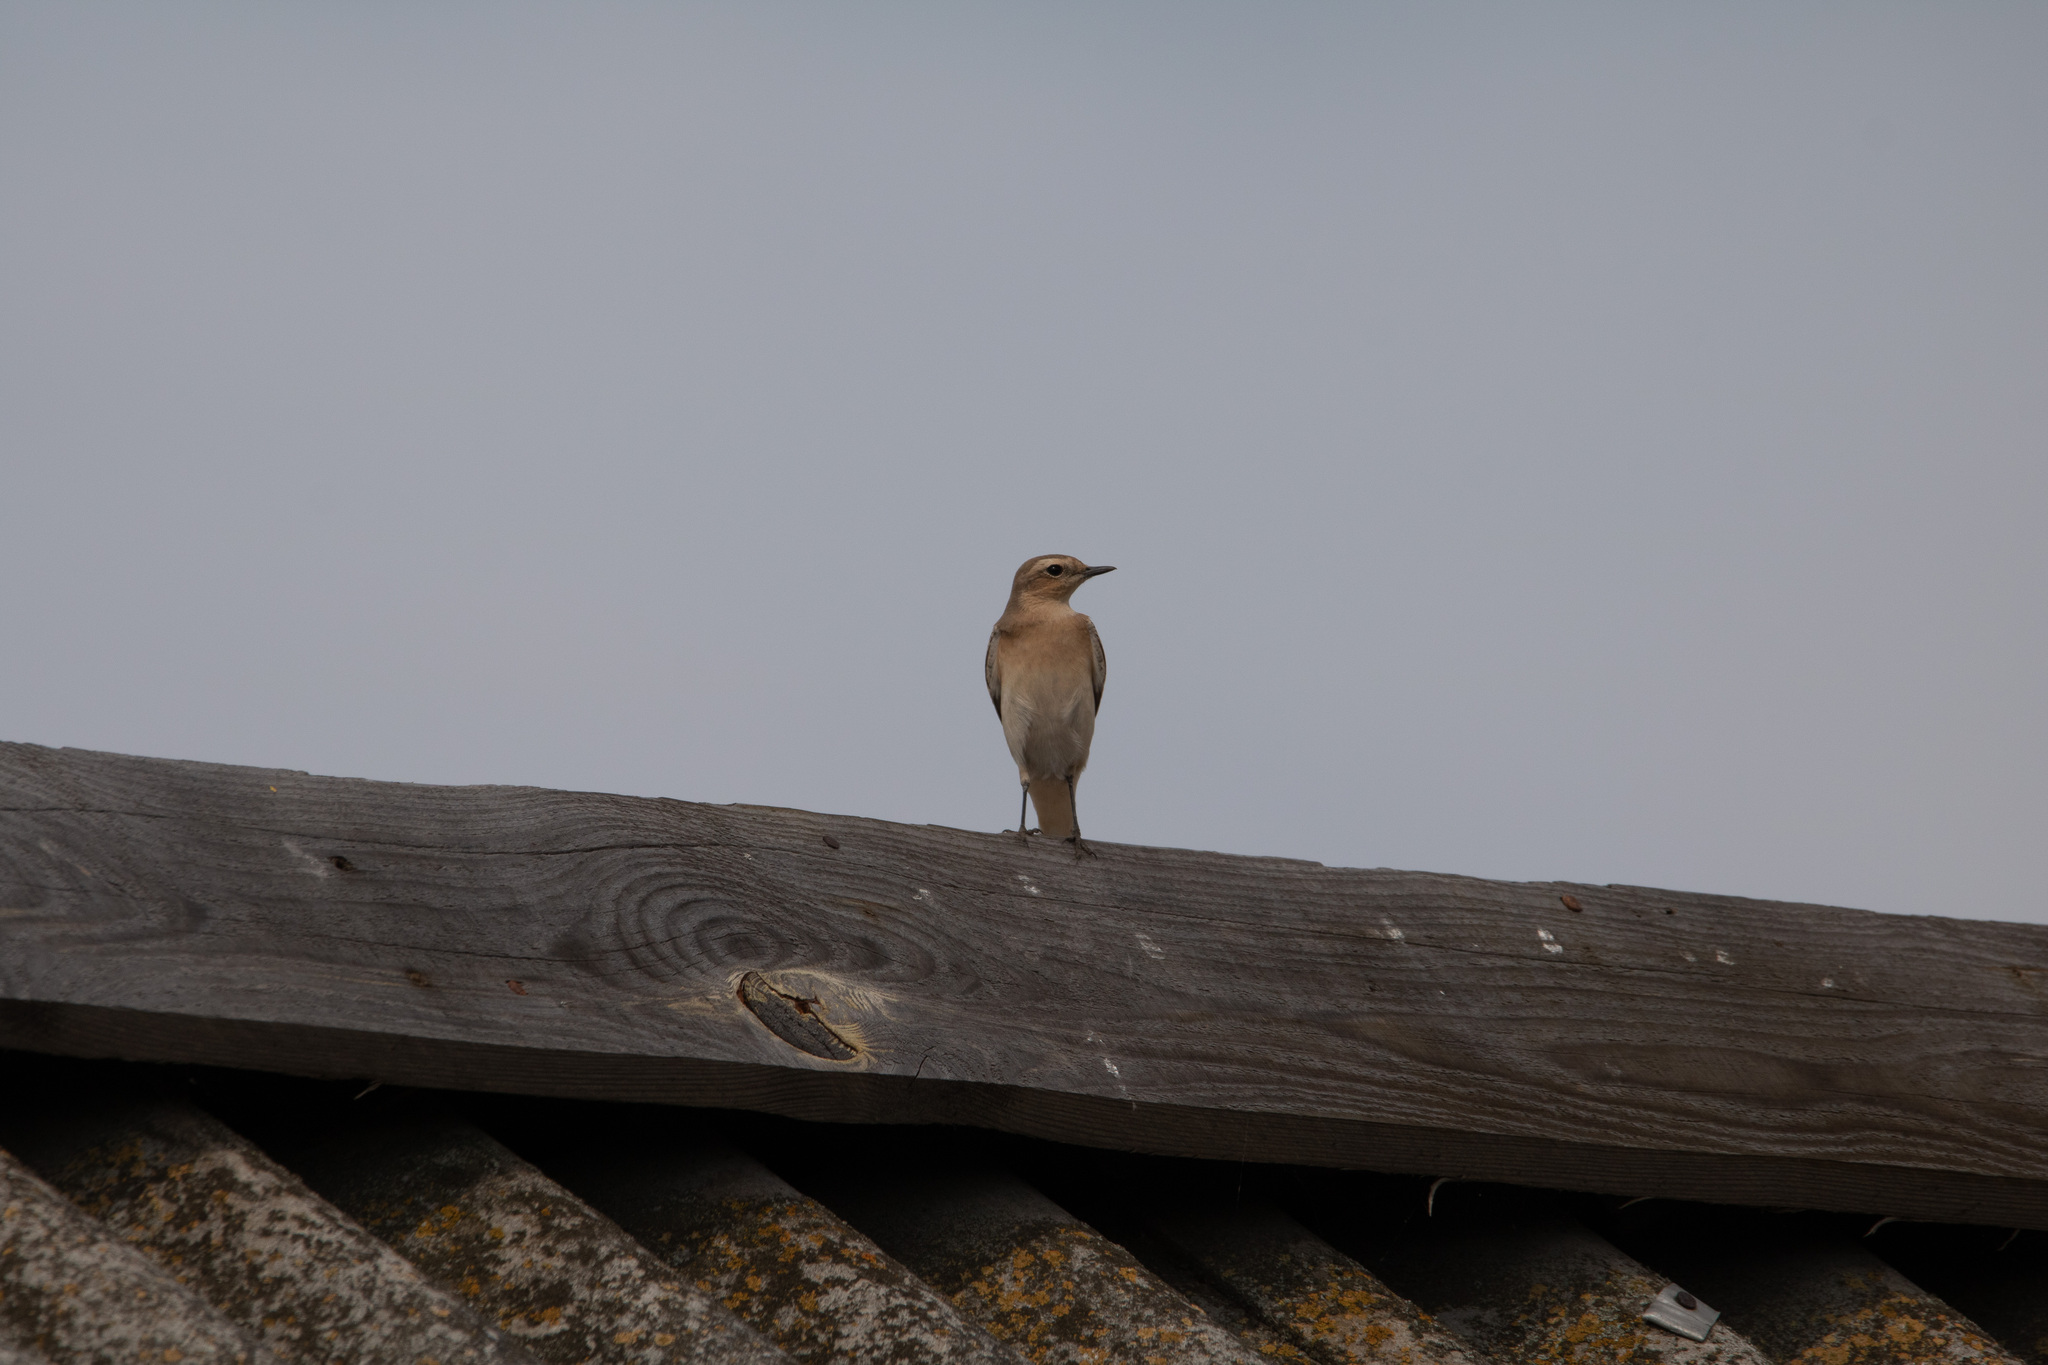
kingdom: Animalia
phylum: Chordata
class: Aves
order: Passeriformes
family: Muscicapidae
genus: Oenanthe
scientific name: Oenanthe oenanthe
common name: Northern wheatear
